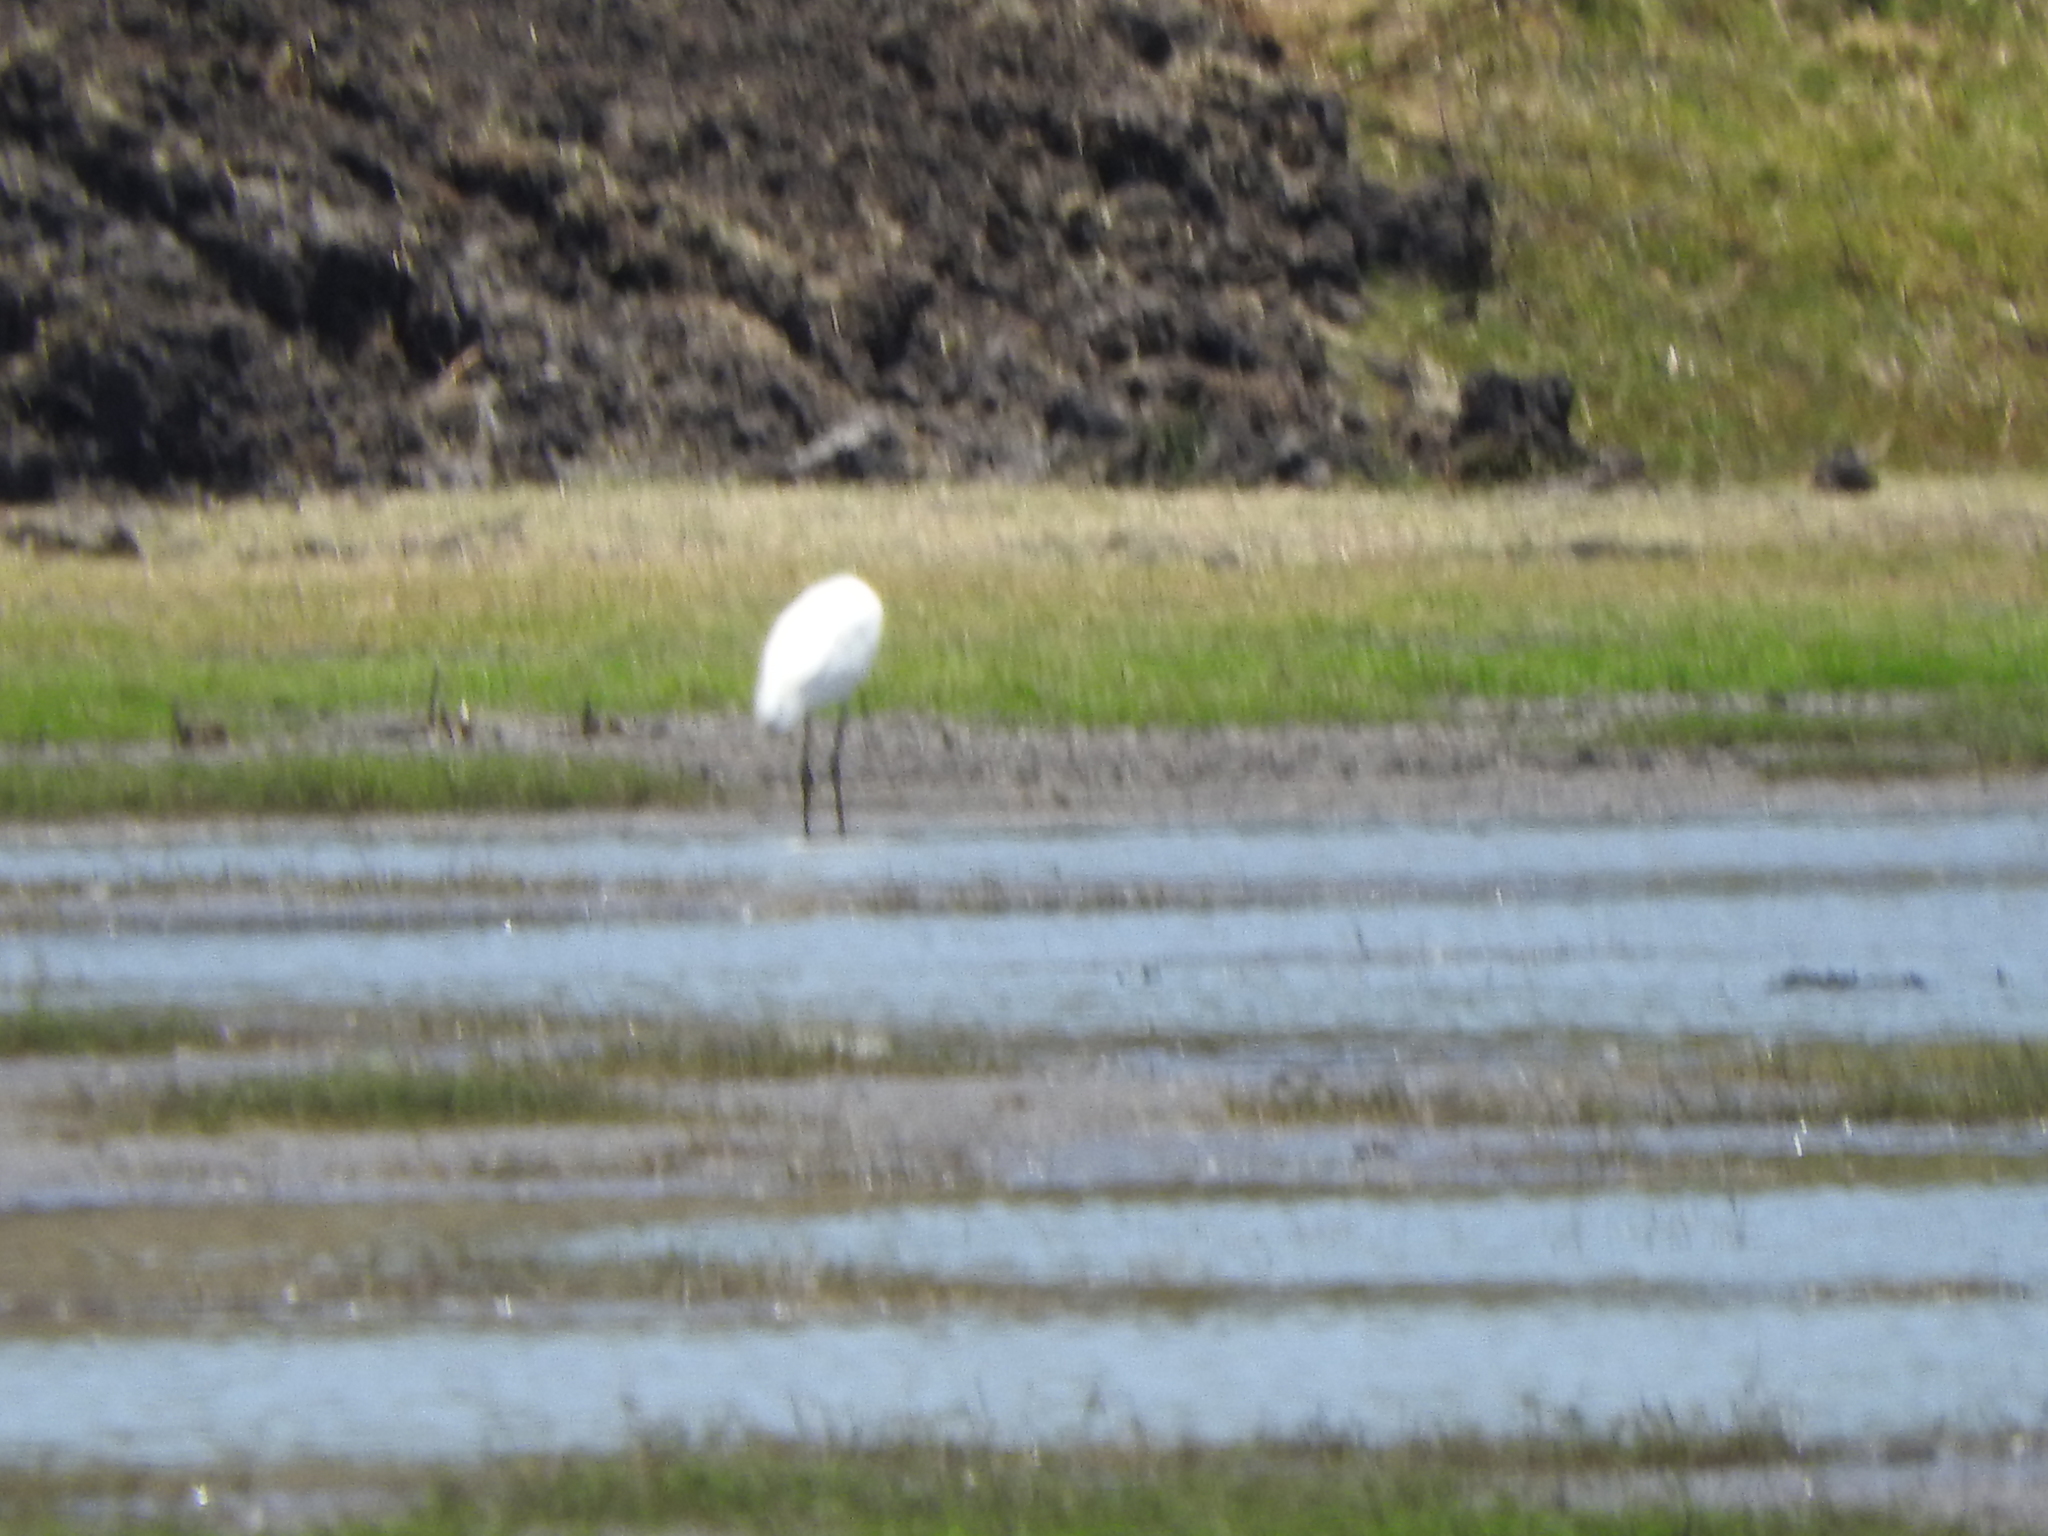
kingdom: Animalia
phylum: Chordata
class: Aves
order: Pelecaniformes
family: Ardeidae
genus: Ardea
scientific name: Ardea alba
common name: Great egret
